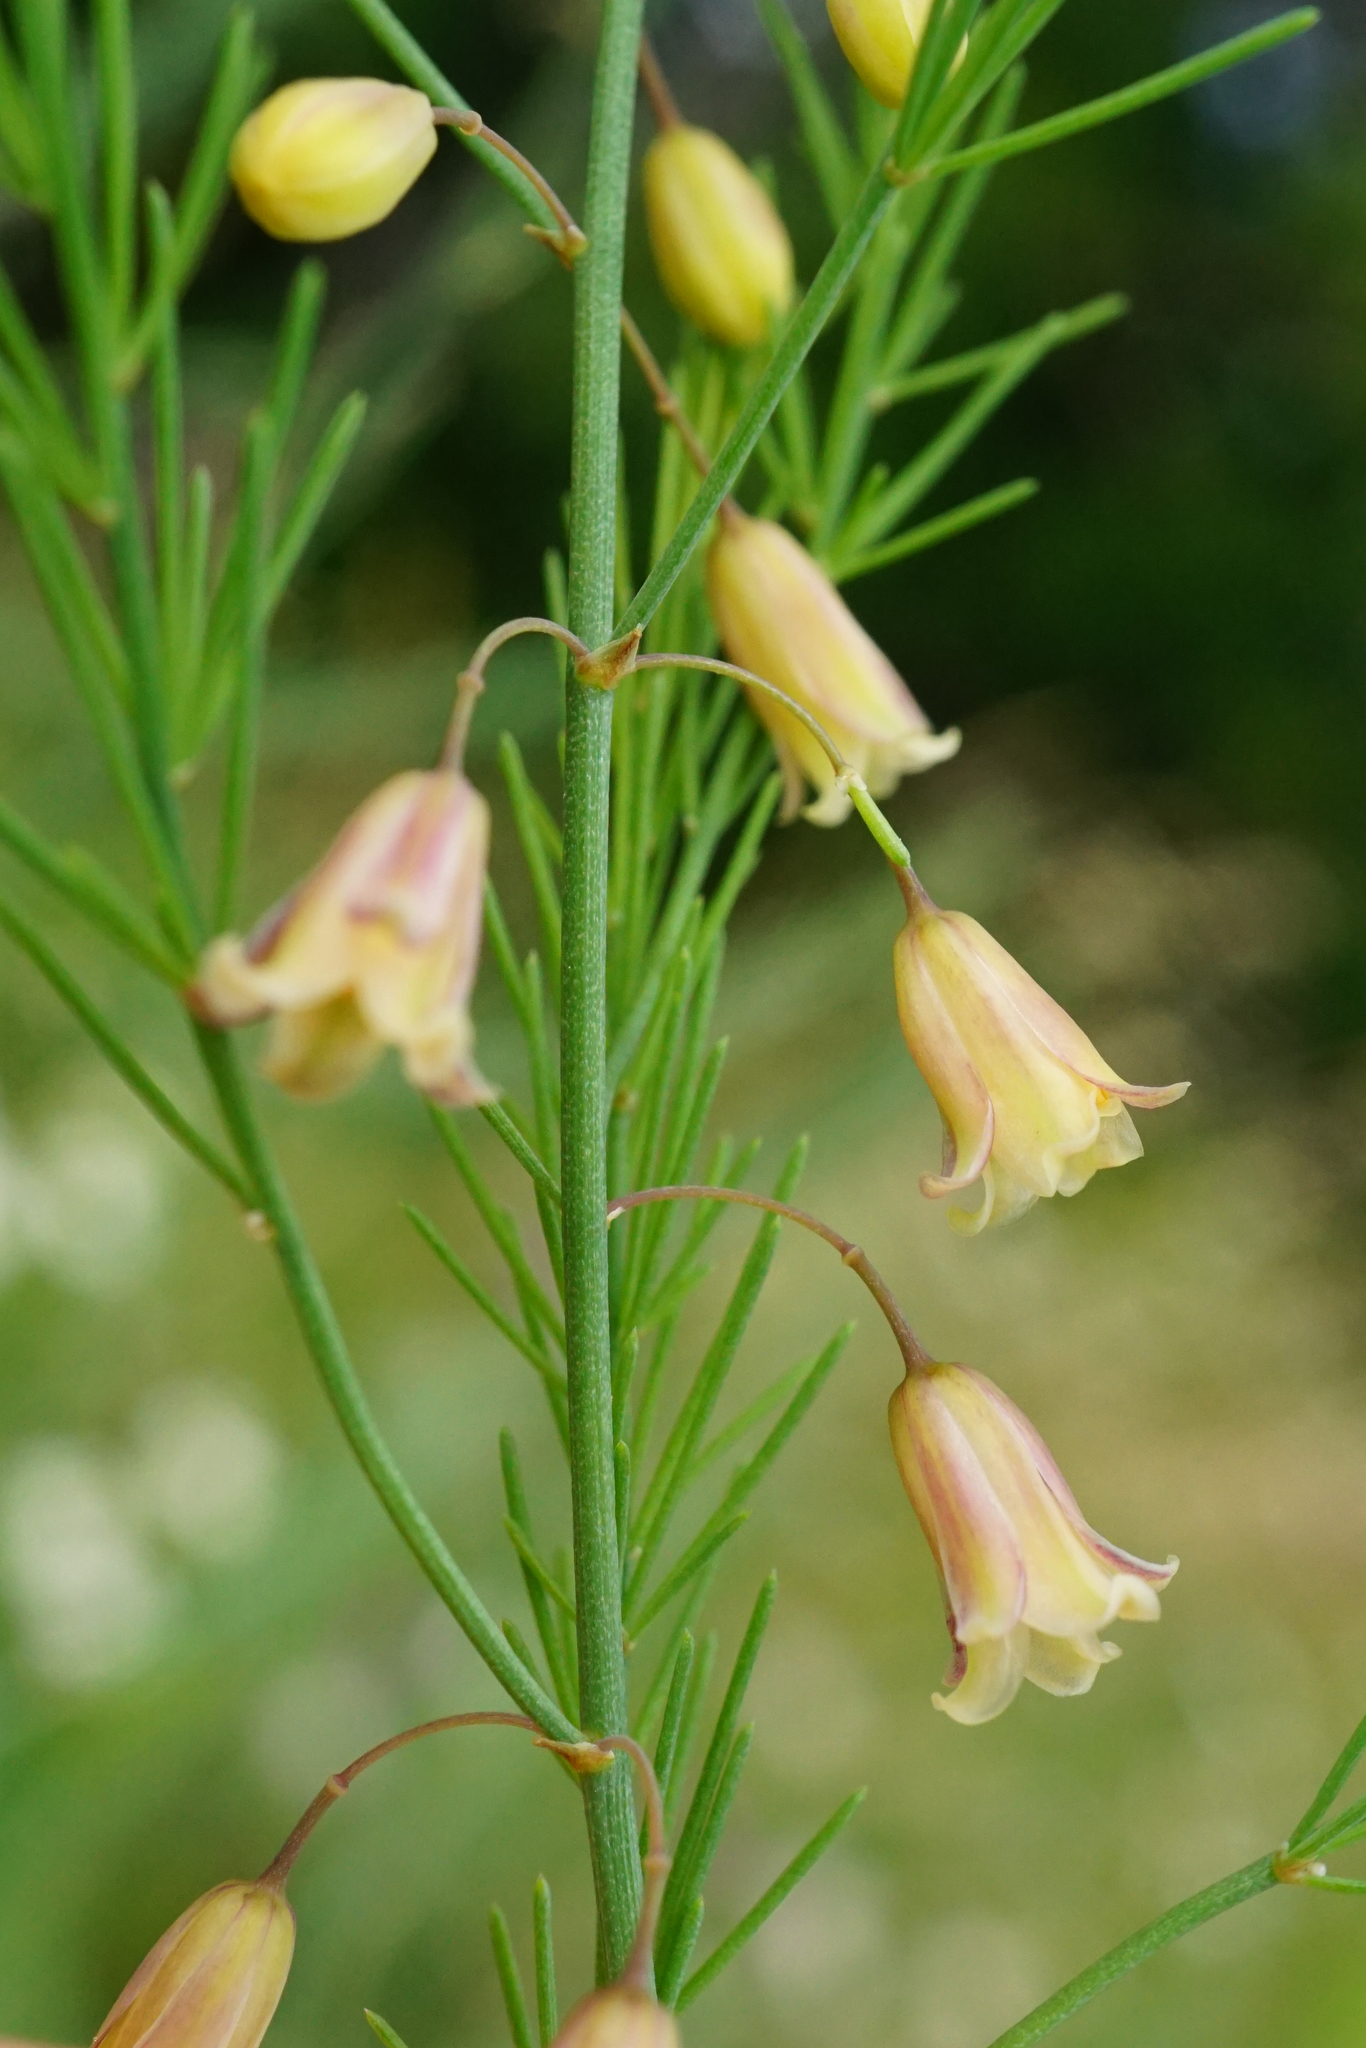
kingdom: Plantae
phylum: Tracheophyta
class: Liliopsida
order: Asparagales
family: Asparagaceae
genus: Asparagus
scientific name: Asparagus officinalis
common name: Garden asparagus
